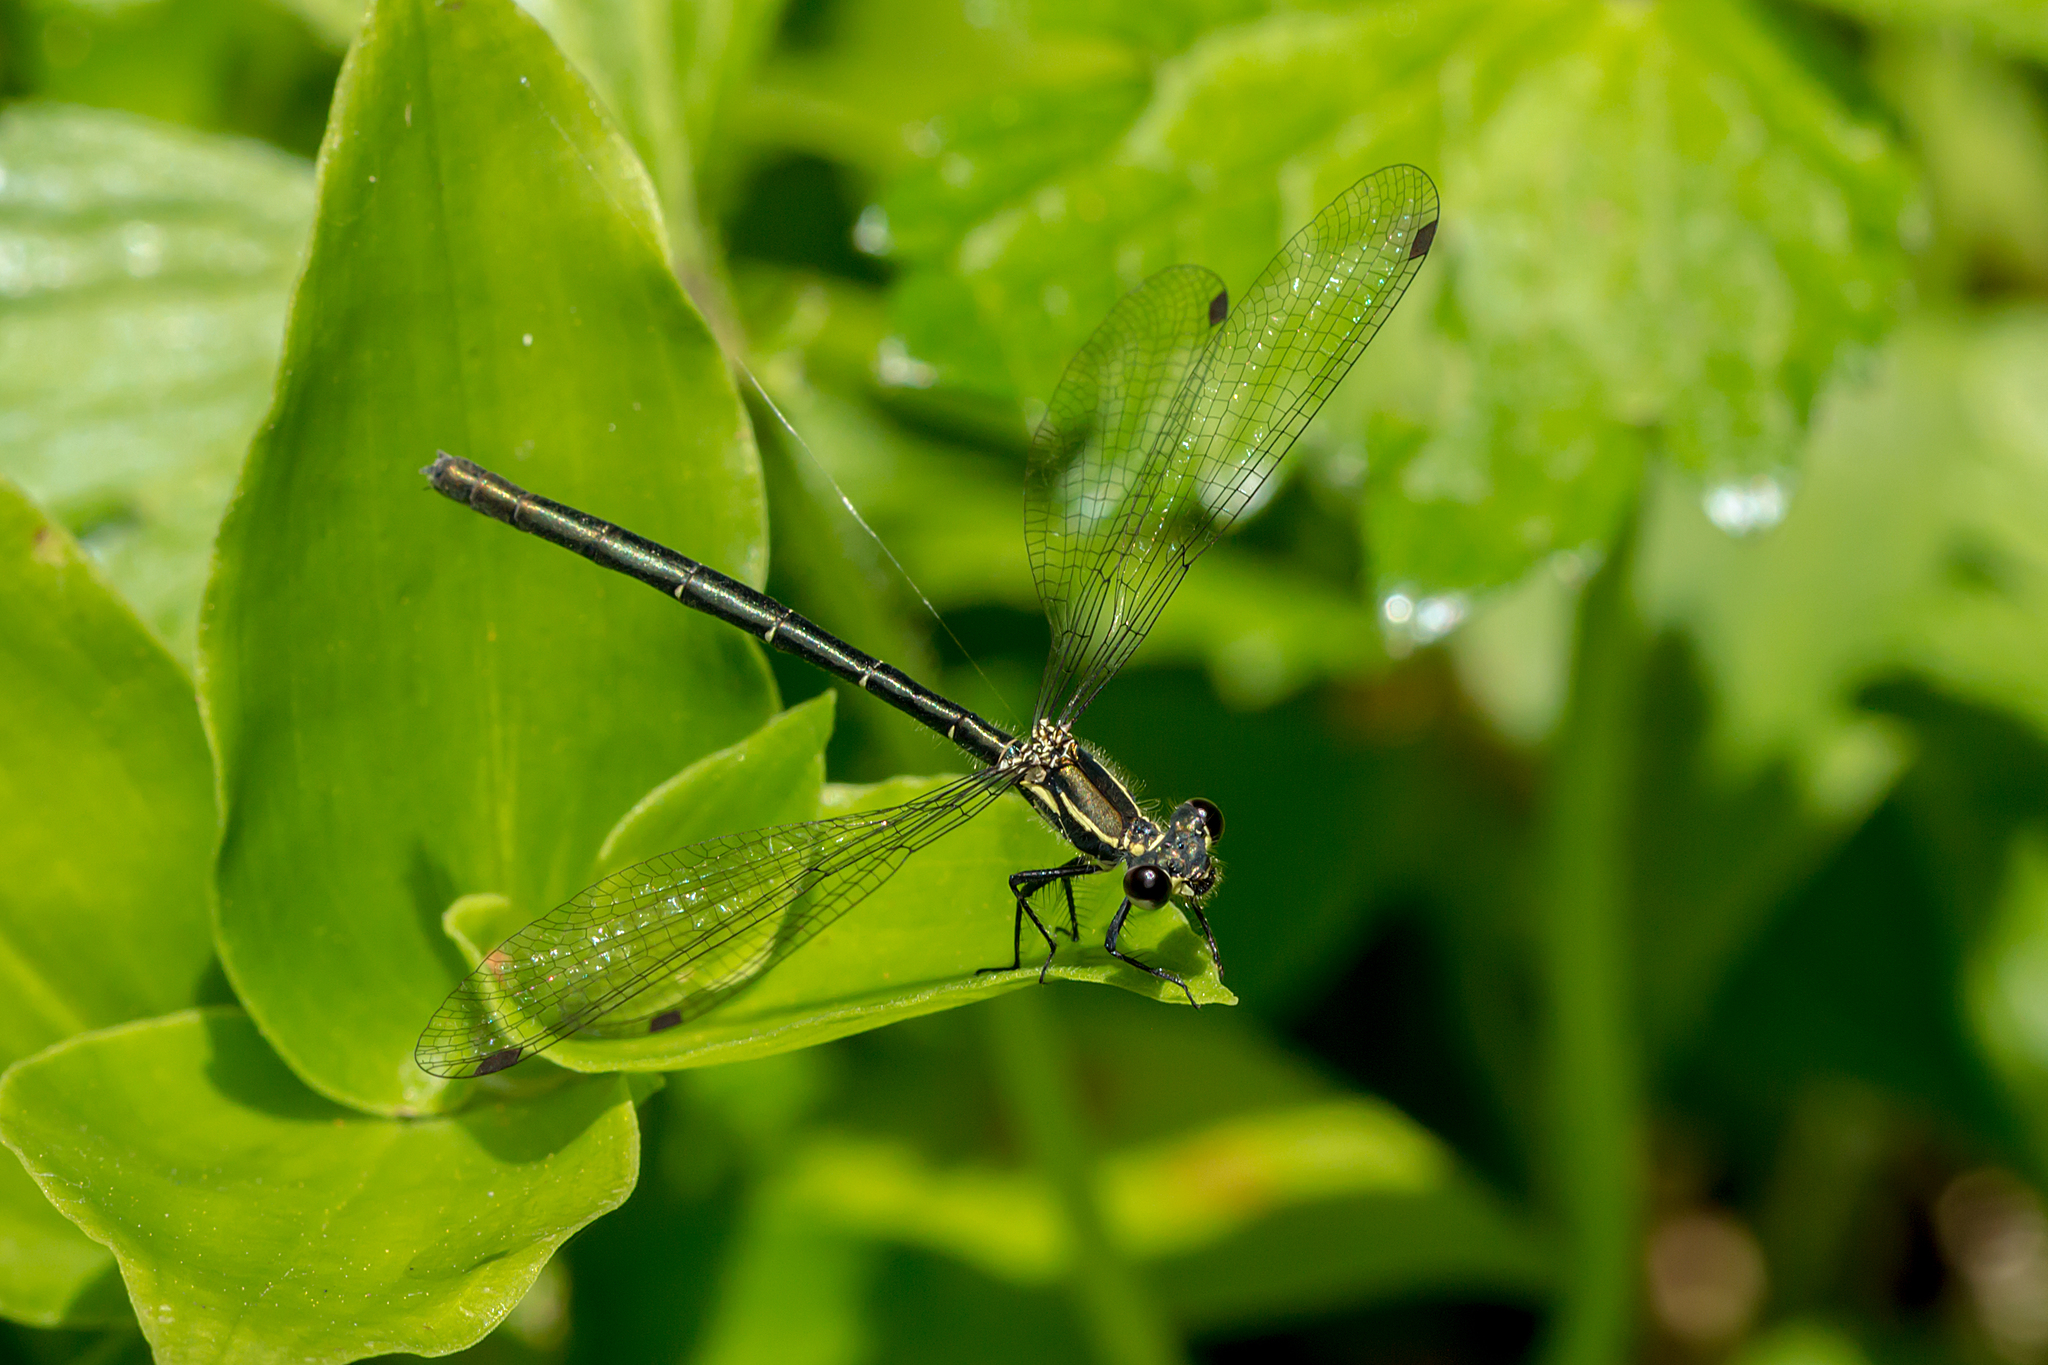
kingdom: Animalia
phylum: Arthropoda
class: Insecta
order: Odonata
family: Argiolestidae
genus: Griseargiolestes
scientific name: Griseargiolestes intermedius
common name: Alpine flatwing
